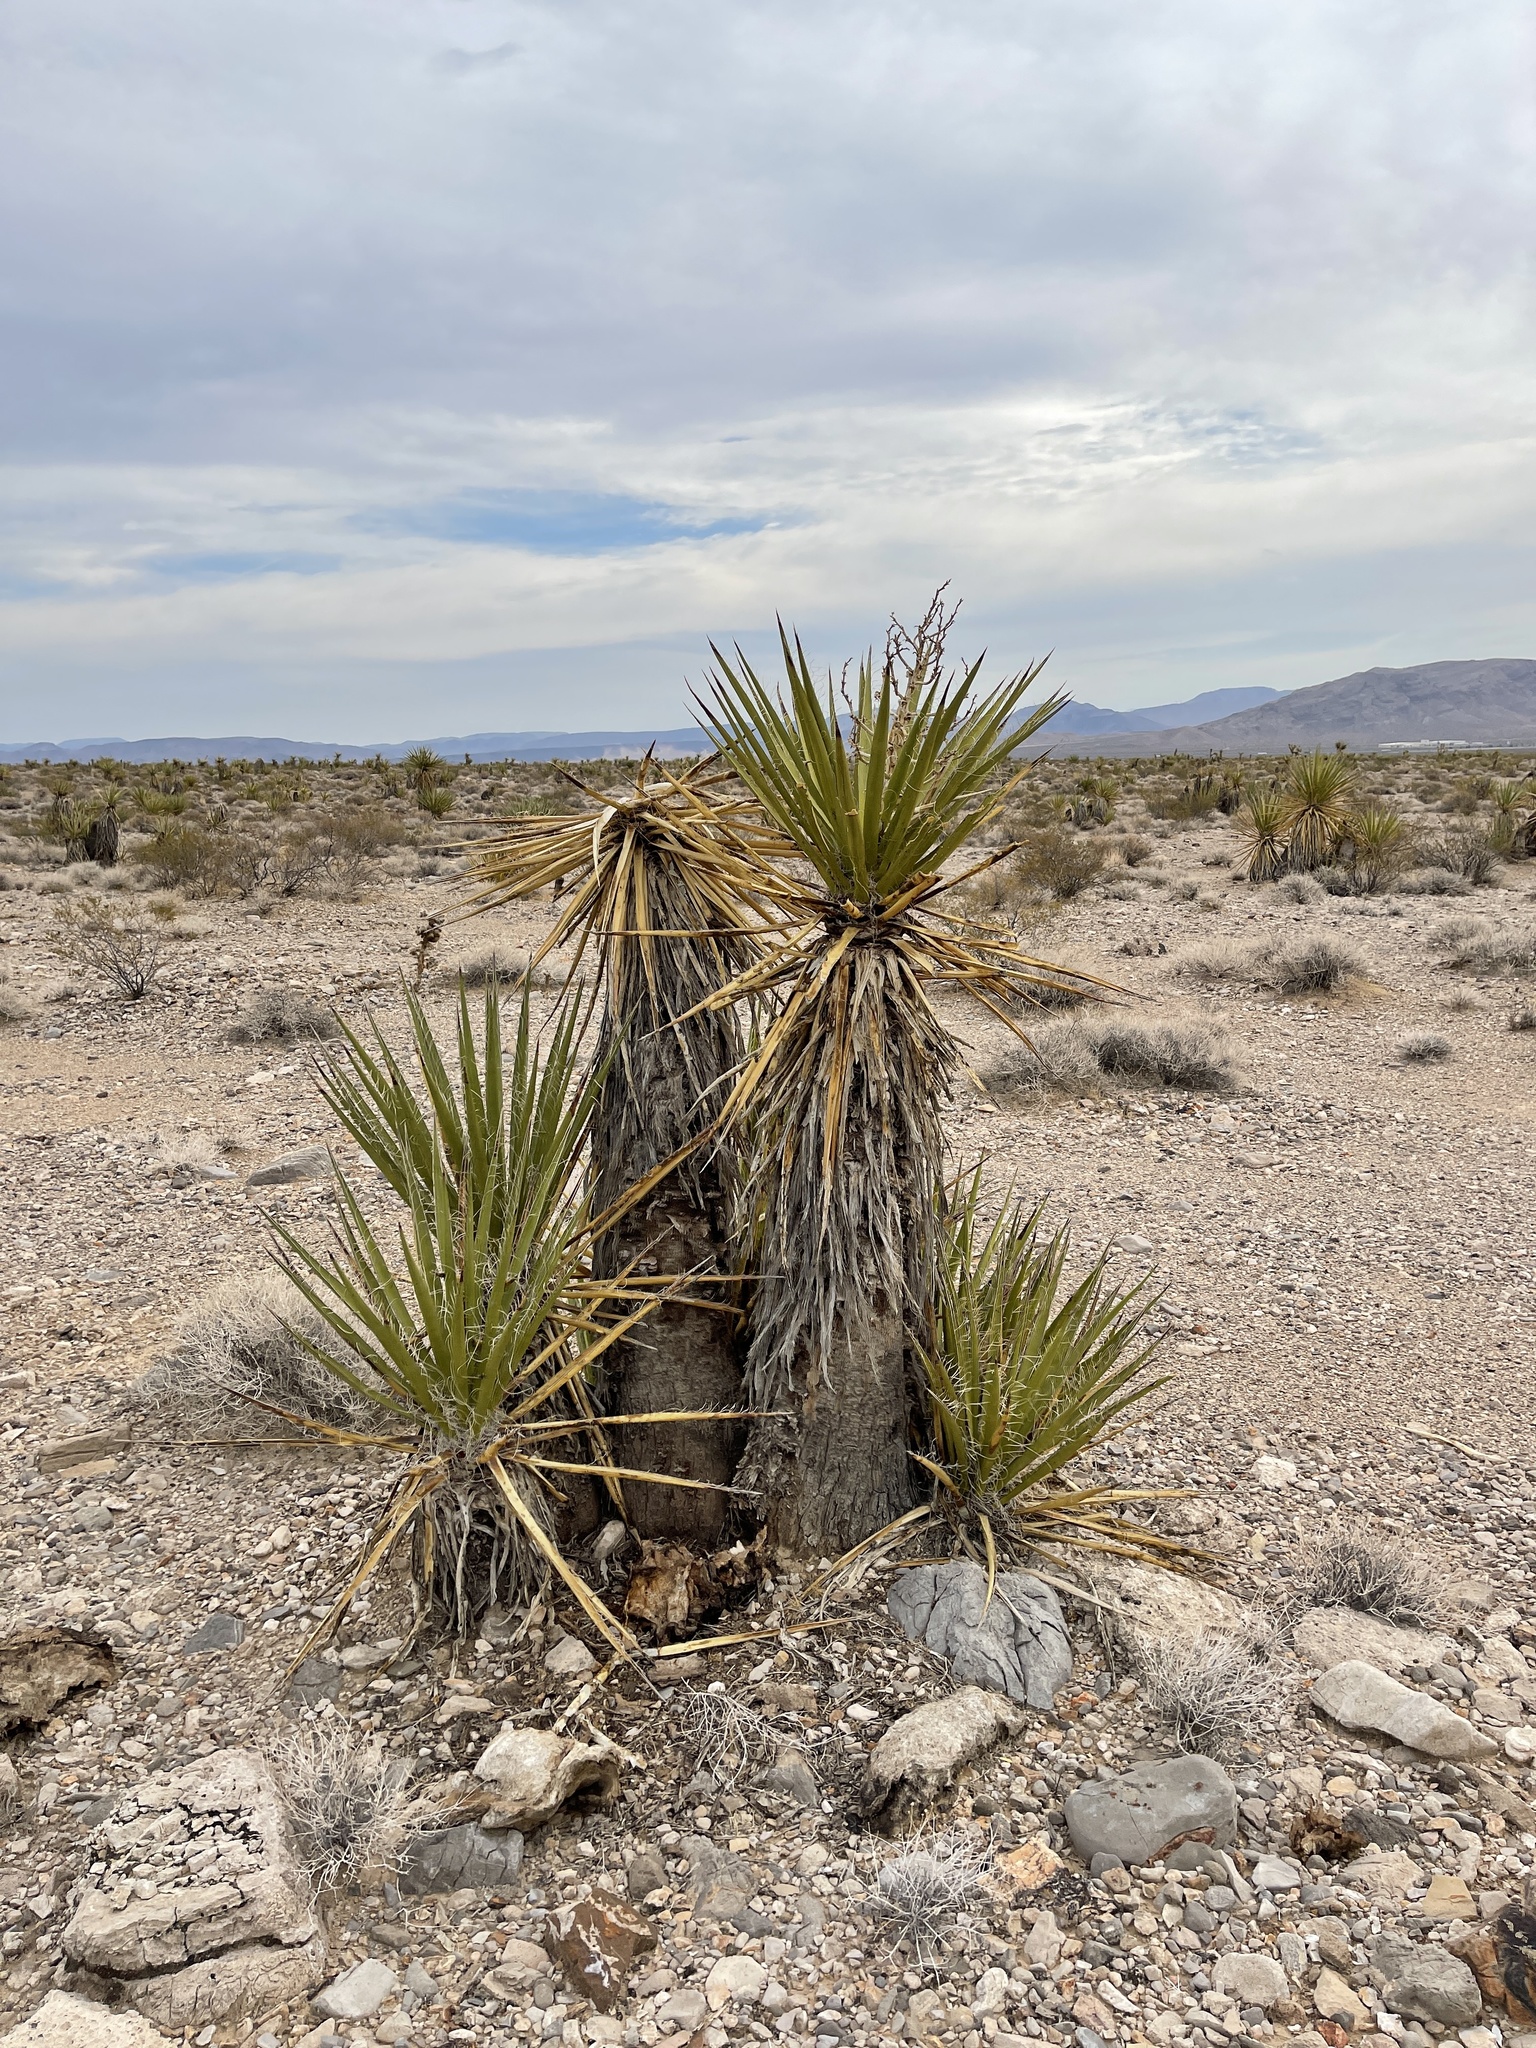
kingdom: Plantae
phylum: Tracheophyta
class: Liliopsida
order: Asparagales
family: Asparagaceae
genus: Yucca
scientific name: Yucca schidigera
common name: Mojave yucca
